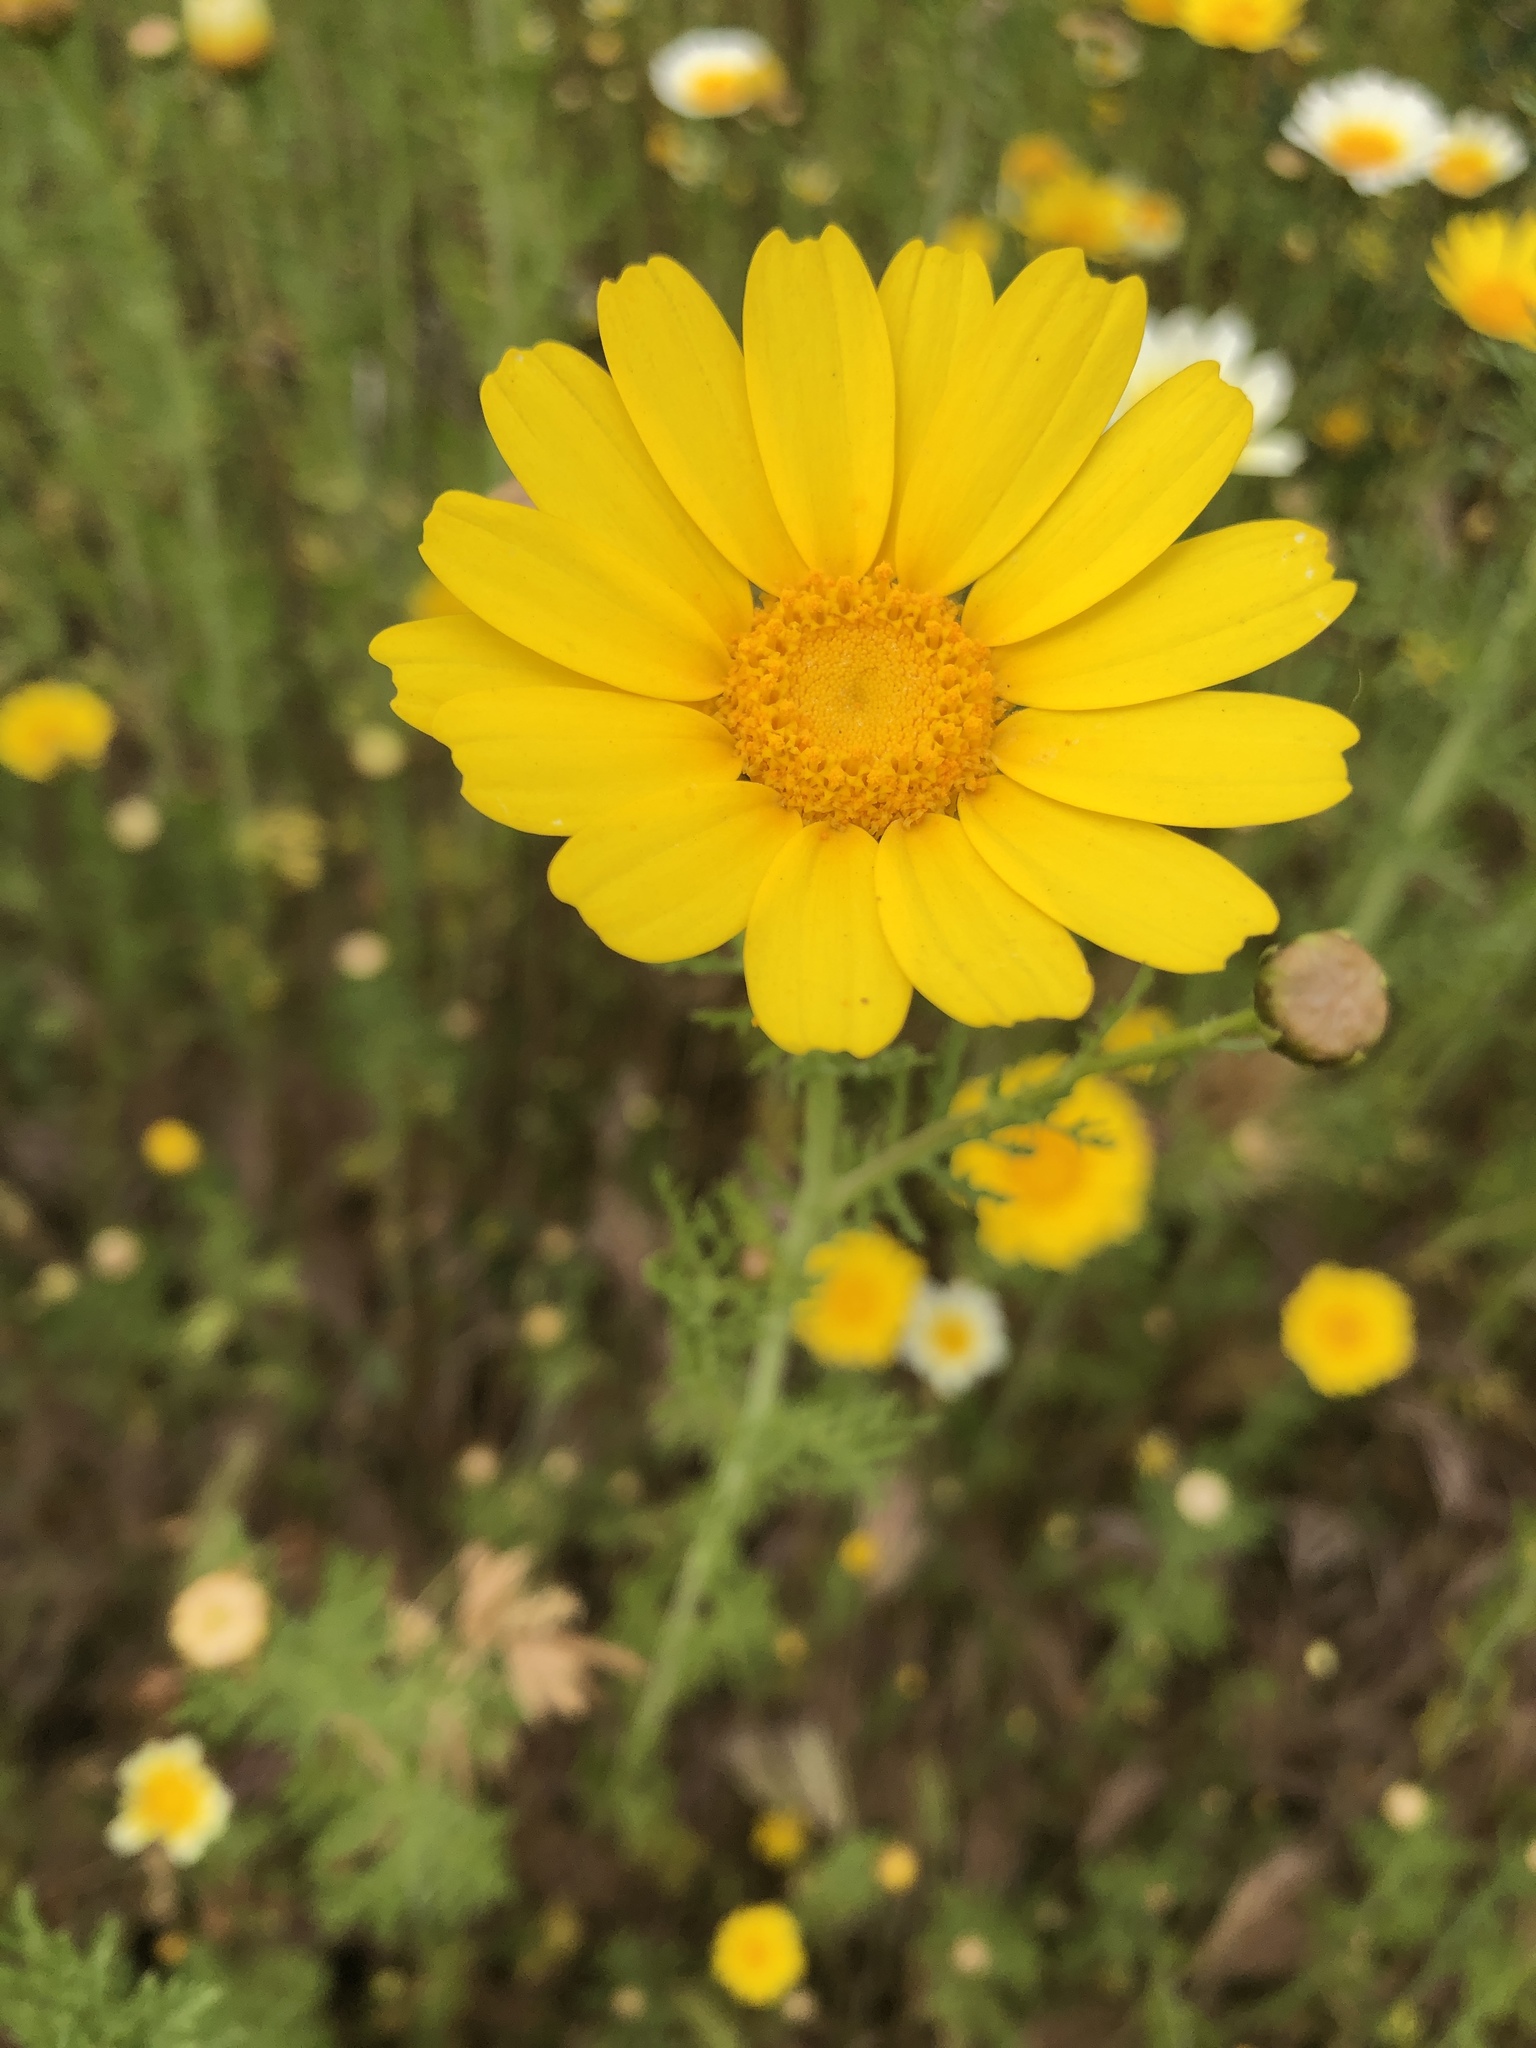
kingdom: Plantae
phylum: Tracheophyta
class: Magnoliopsida
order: Asterales
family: Asteraceae
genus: Glebionis
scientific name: Glebionis coronaria
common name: Crowndaisy
